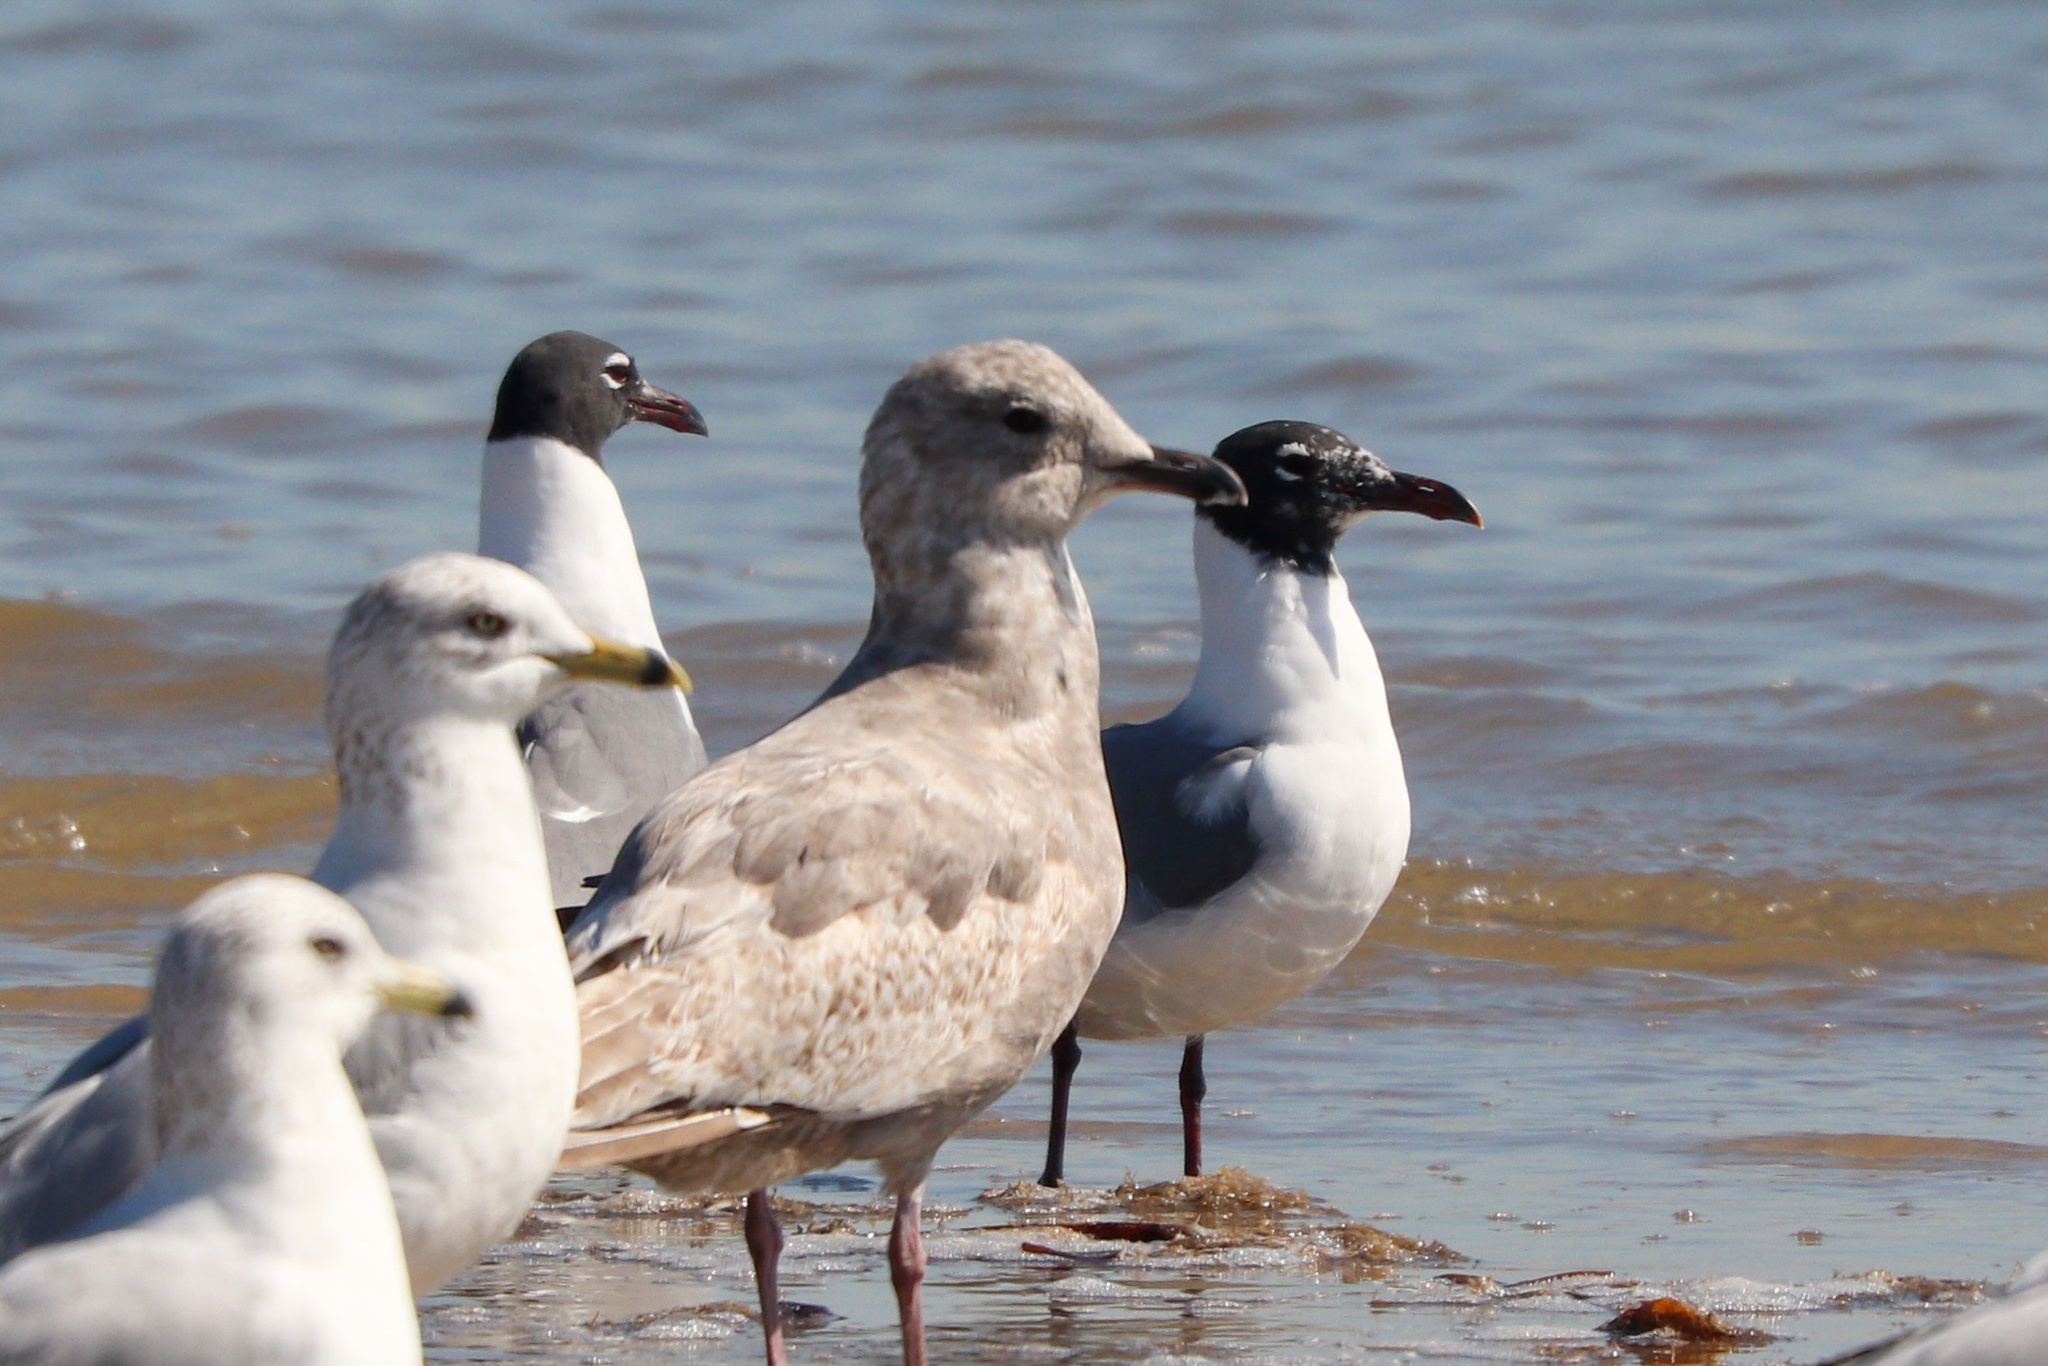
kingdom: Animalia
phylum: Chordata
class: Aves
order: Charadriiformes
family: Laridae
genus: Larus
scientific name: Larus glaucoides
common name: Iceland gull
